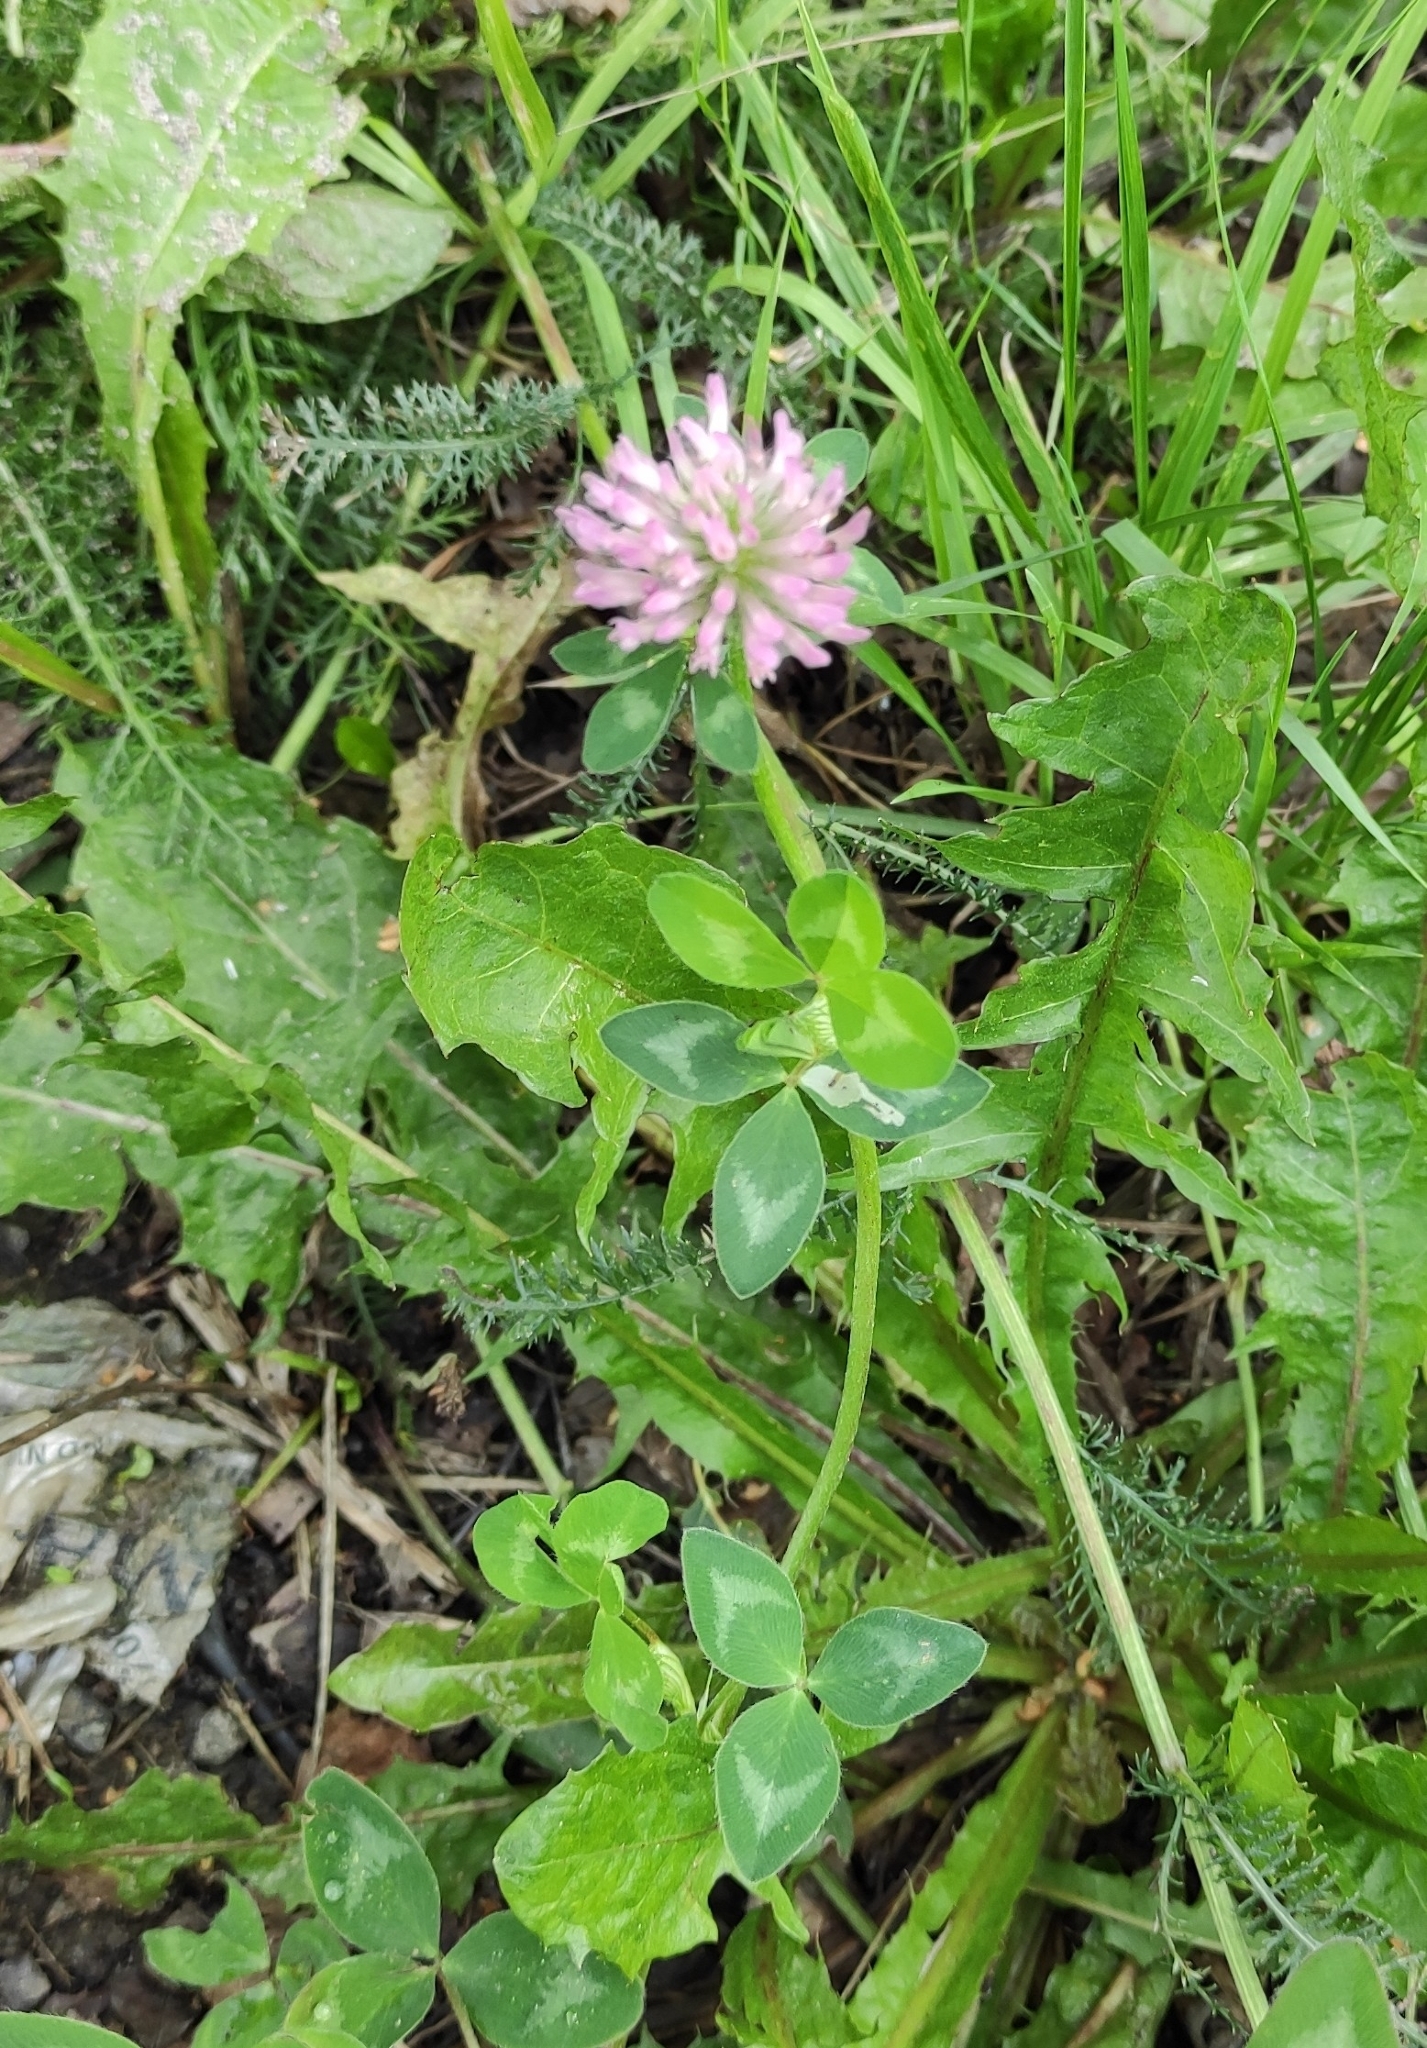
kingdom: Plantae
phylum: Tracheophyta
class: Magnoliopsida
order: Fabales
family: Fabaceae
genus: Trifolium
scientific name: Trifolium pratense
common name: Red clover
